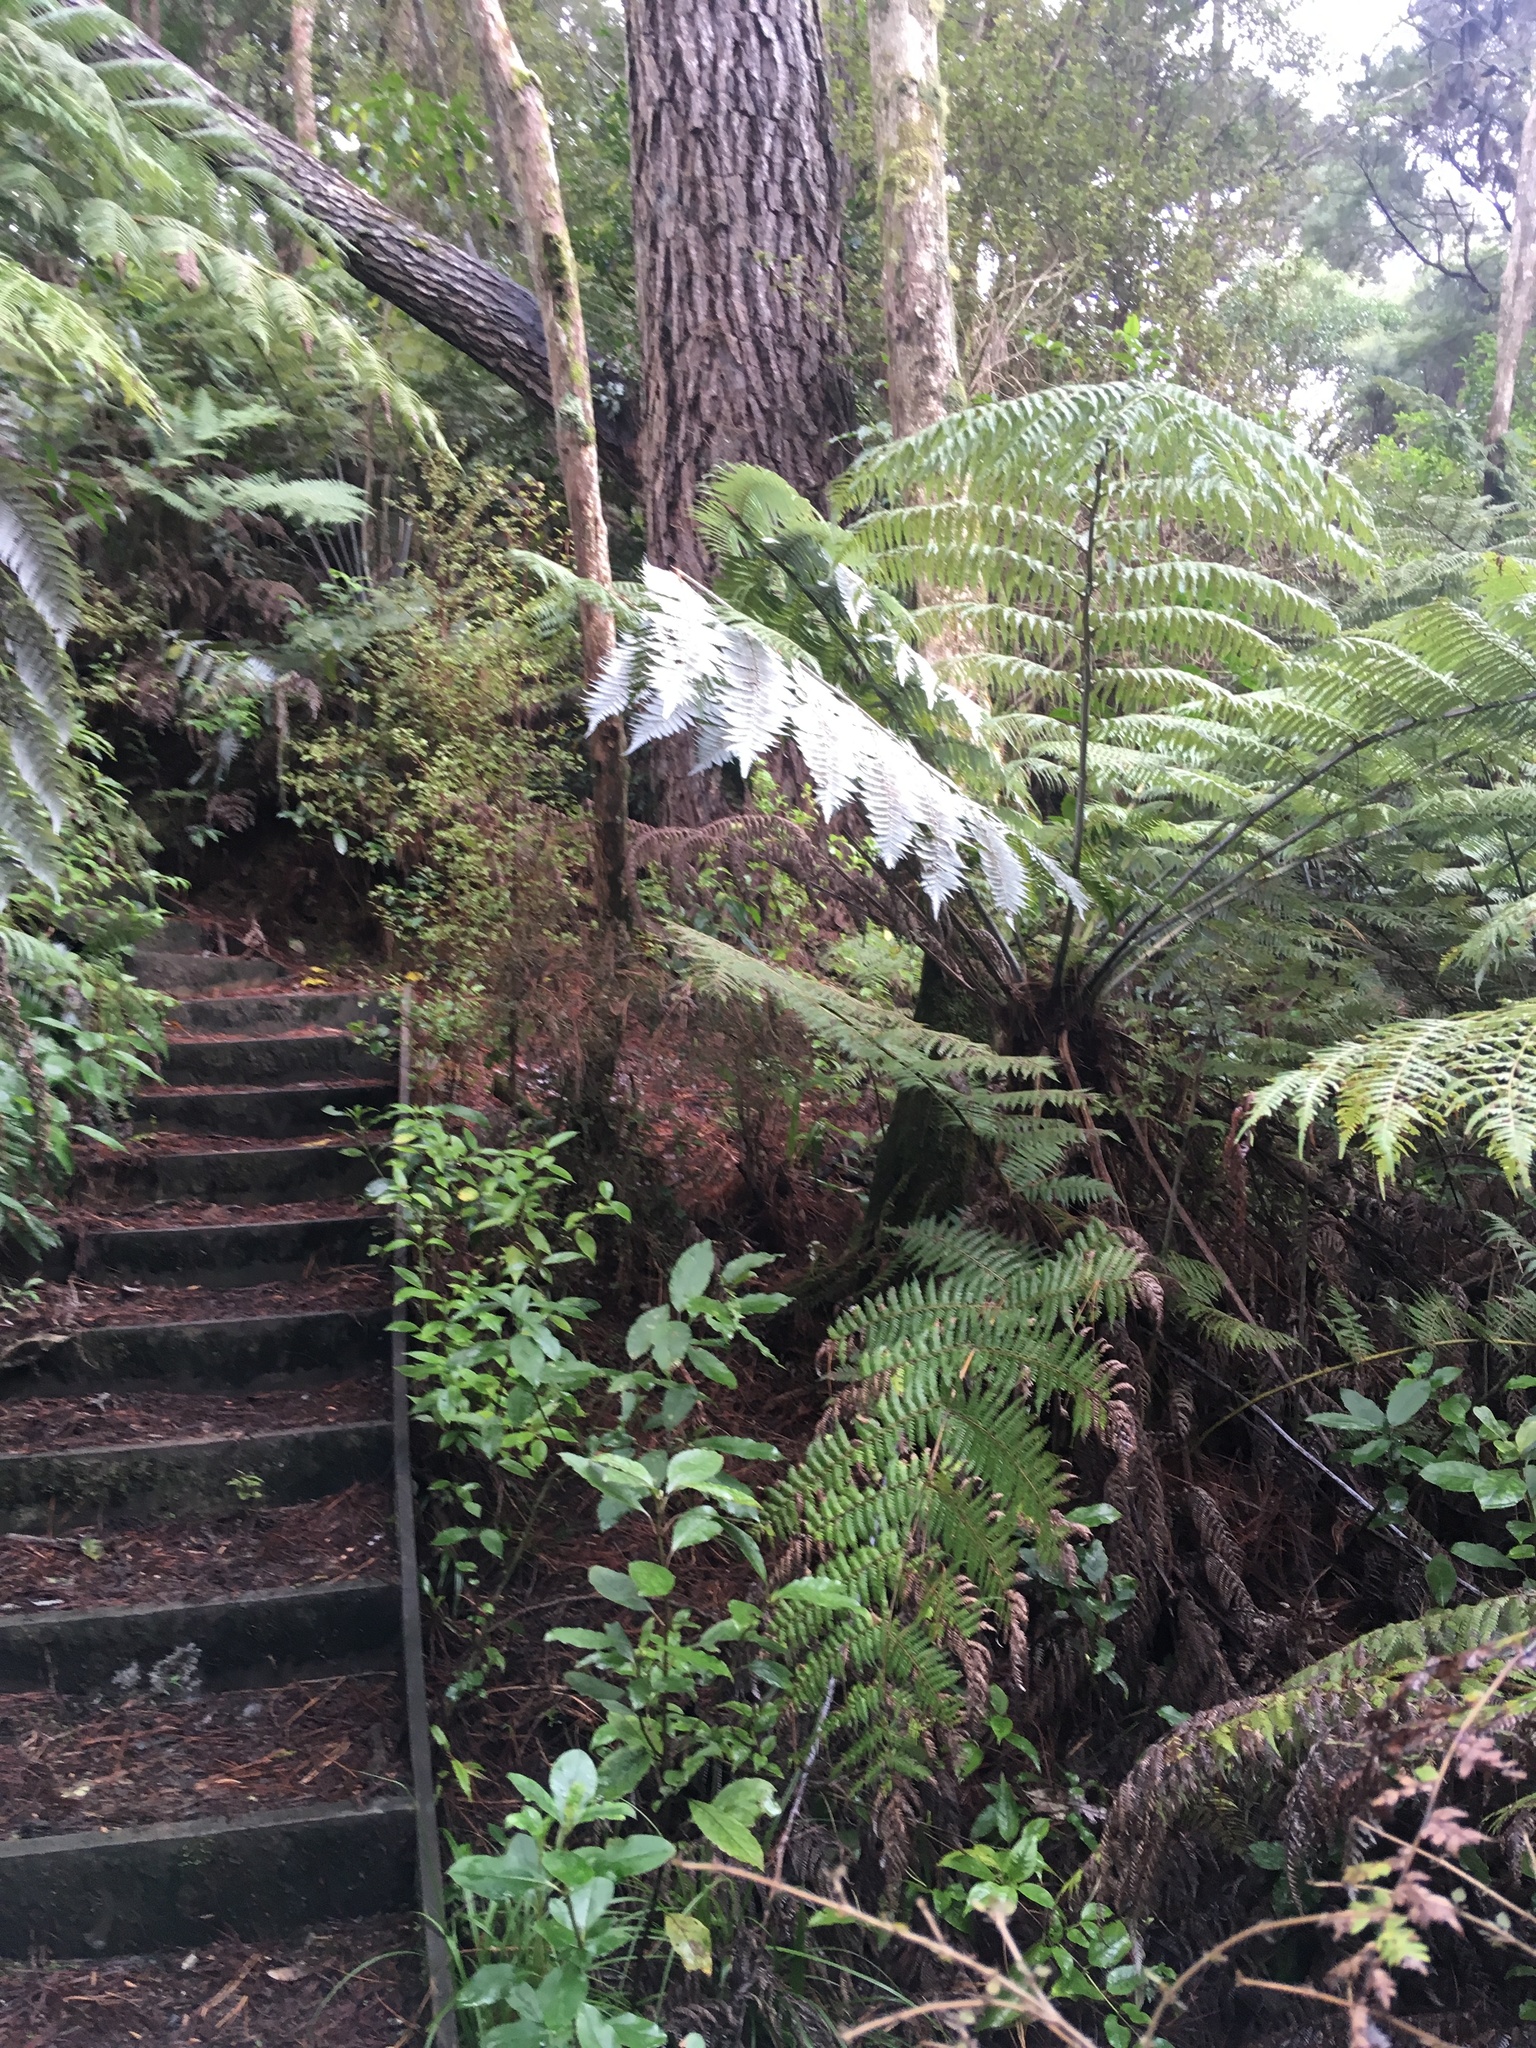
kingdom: Plantae
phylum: Tracheophyta
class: Polypodiopsida
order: Cyatheales
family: Cyatheaceae
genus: Alsophila
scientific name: Alsophila dealbata
